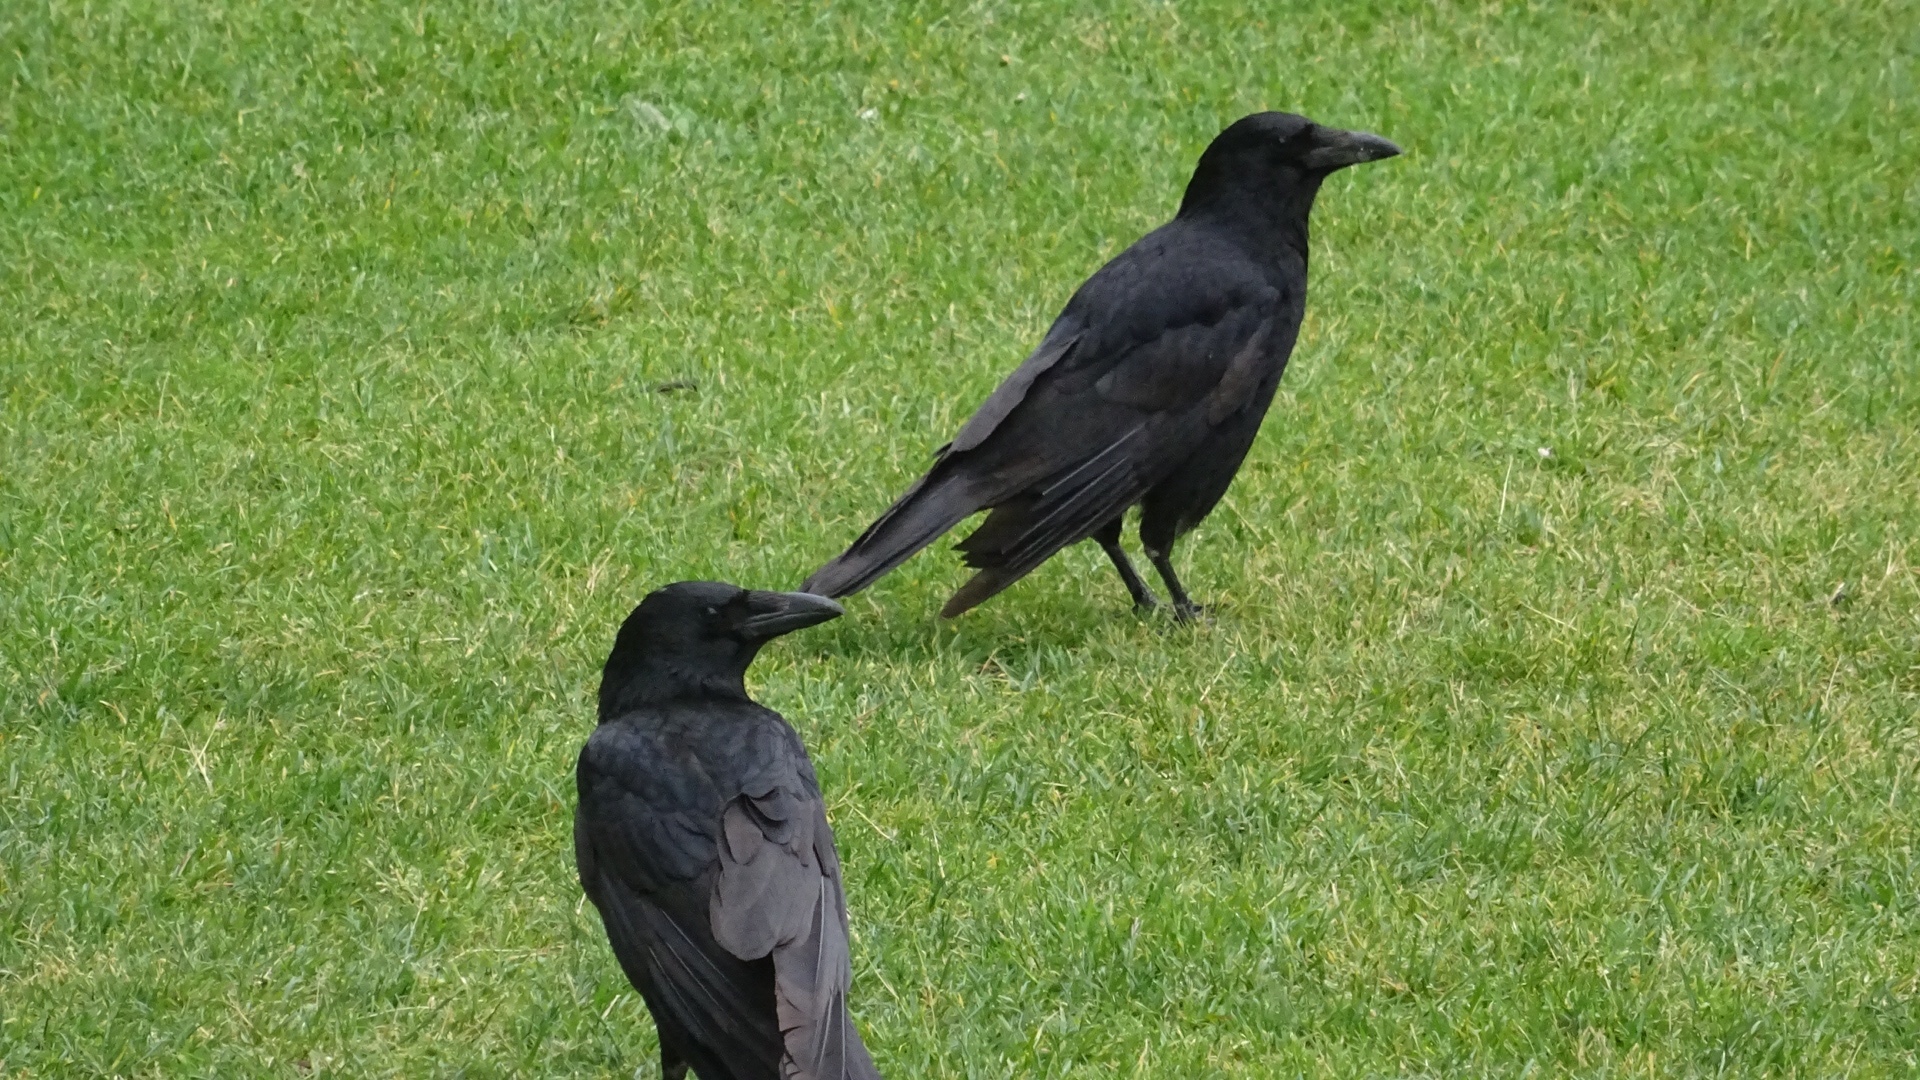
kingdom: Animalia
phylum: Chordata
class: Aves
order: Passeriformes
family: Corvidae
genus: Corvus
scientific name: Corvus corone
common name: Carrion crow
